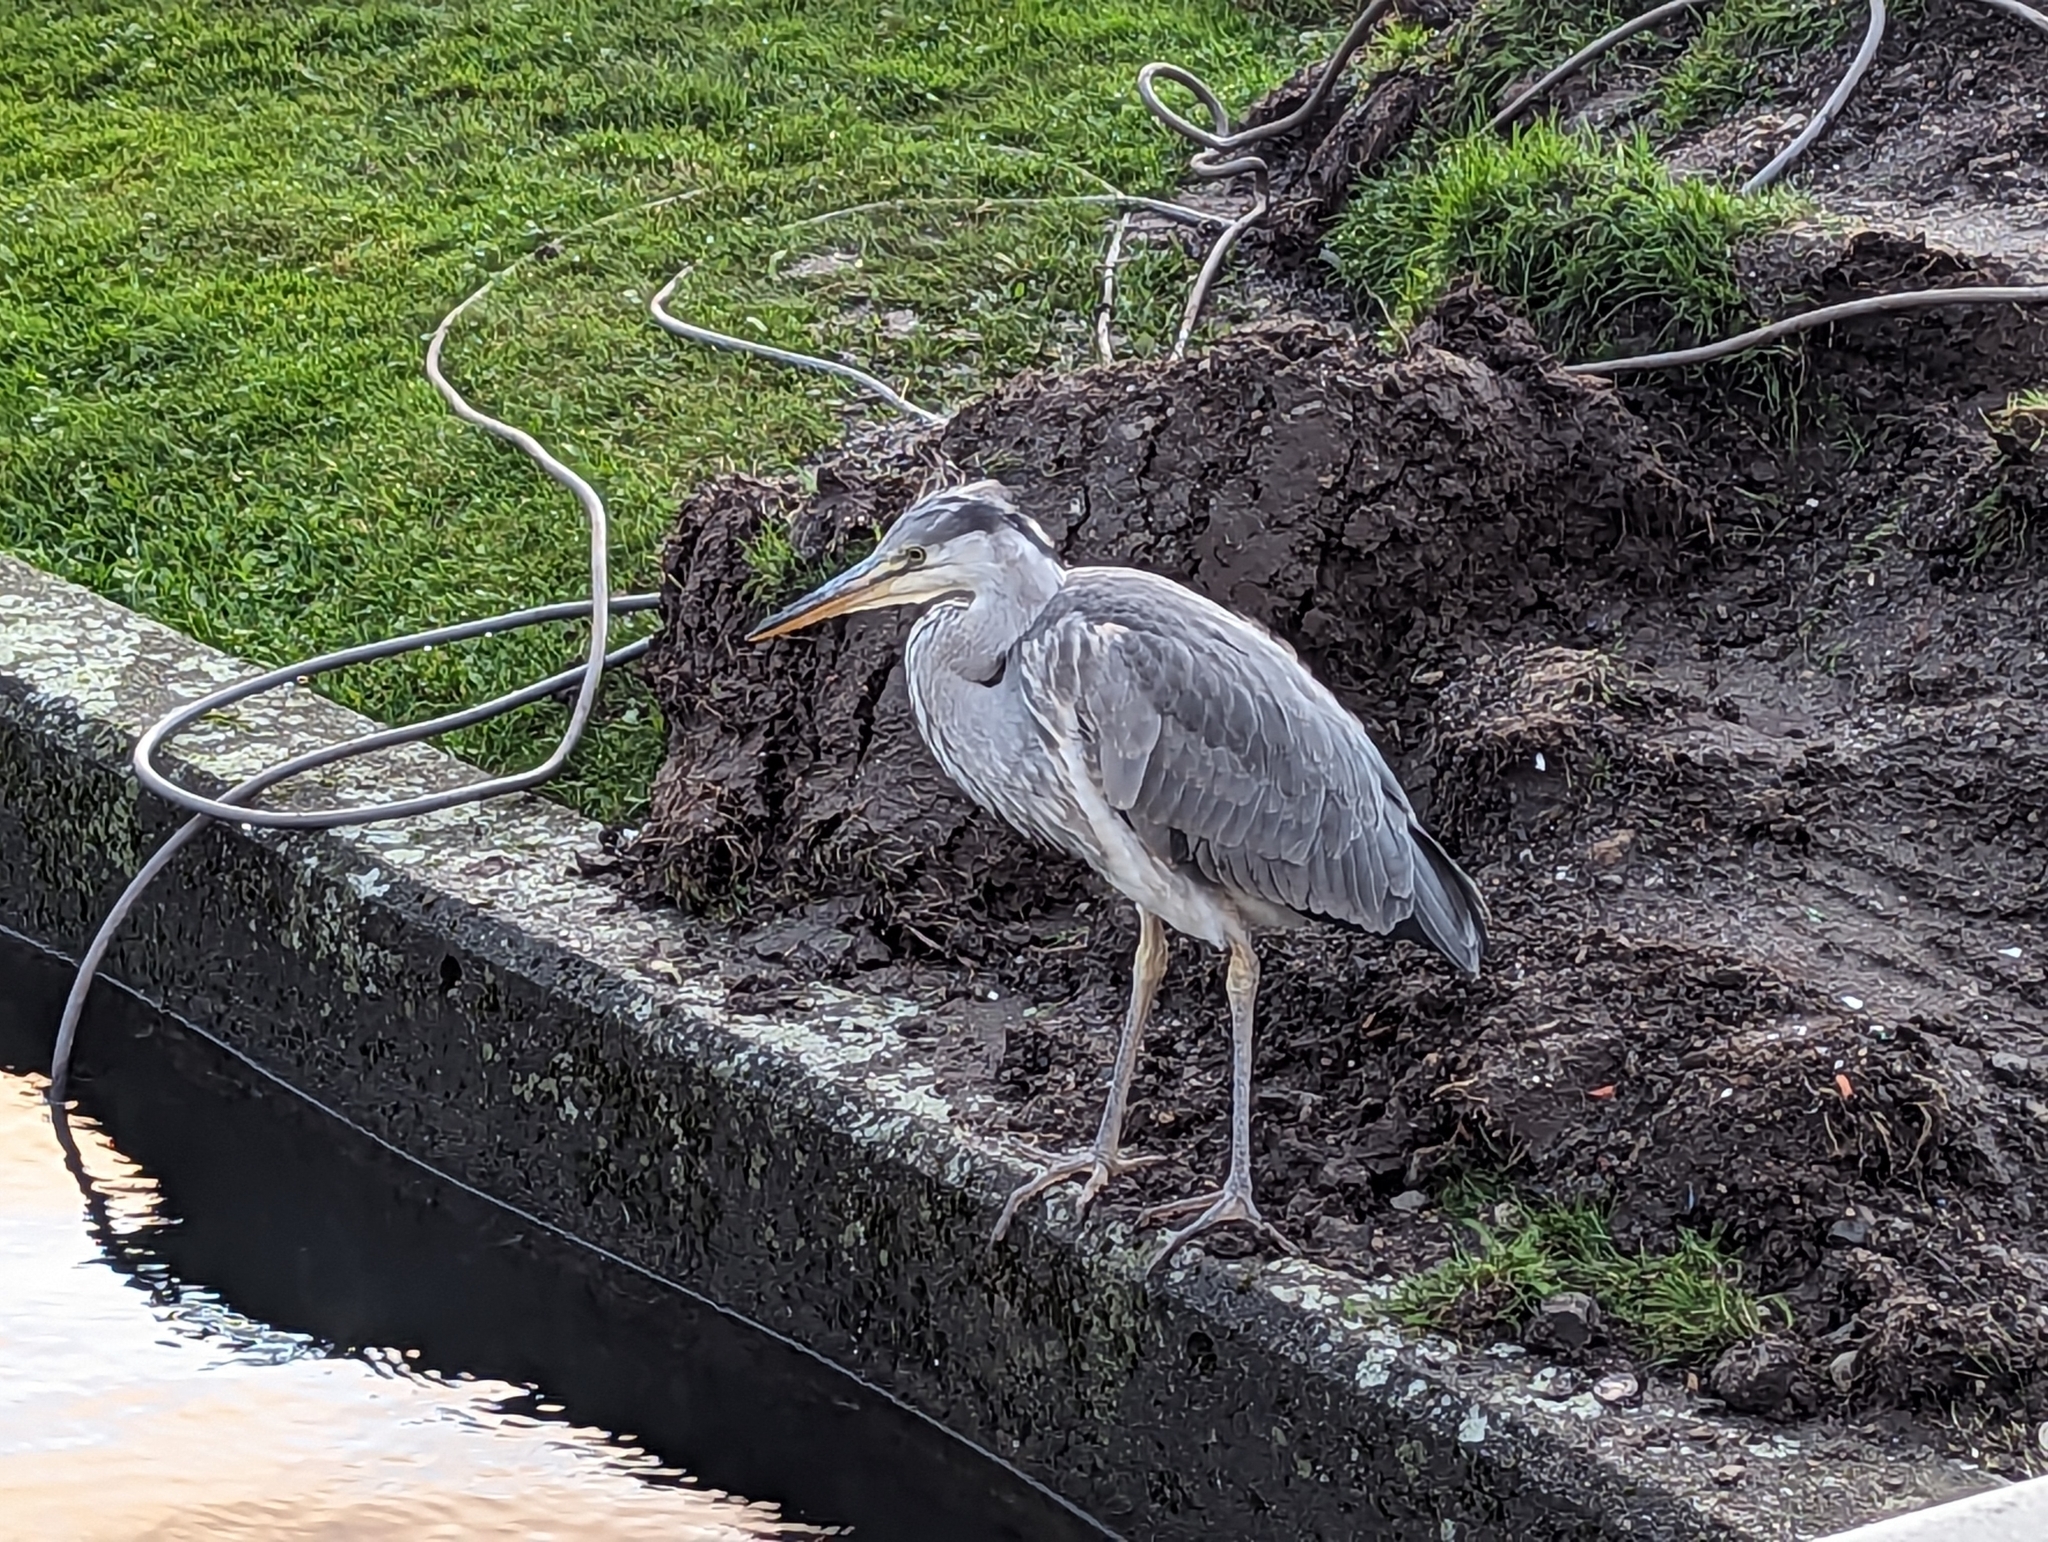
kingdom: Animalia
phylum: Chordata
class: Aves
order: Pelecaniformes
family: Ardeidae
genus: Ardea
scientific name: Ardea cinerea
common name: Grey heron
